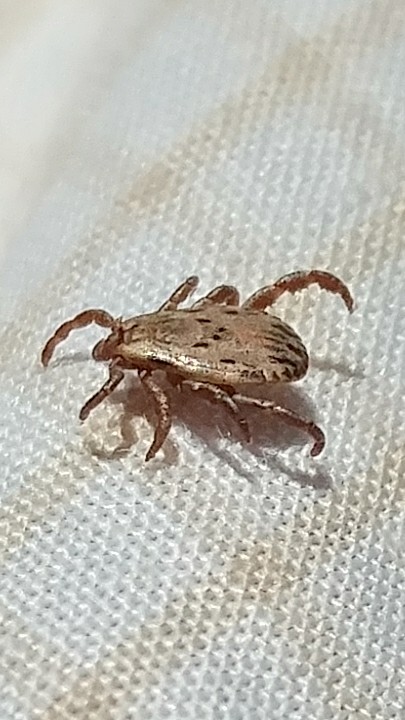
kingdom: Animalia
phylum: Arthropoda
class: Arachnida
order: Ixodida
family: Ixodidae
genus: Dermacentor
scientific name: Dermacentor occidentalis
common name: Net tick
